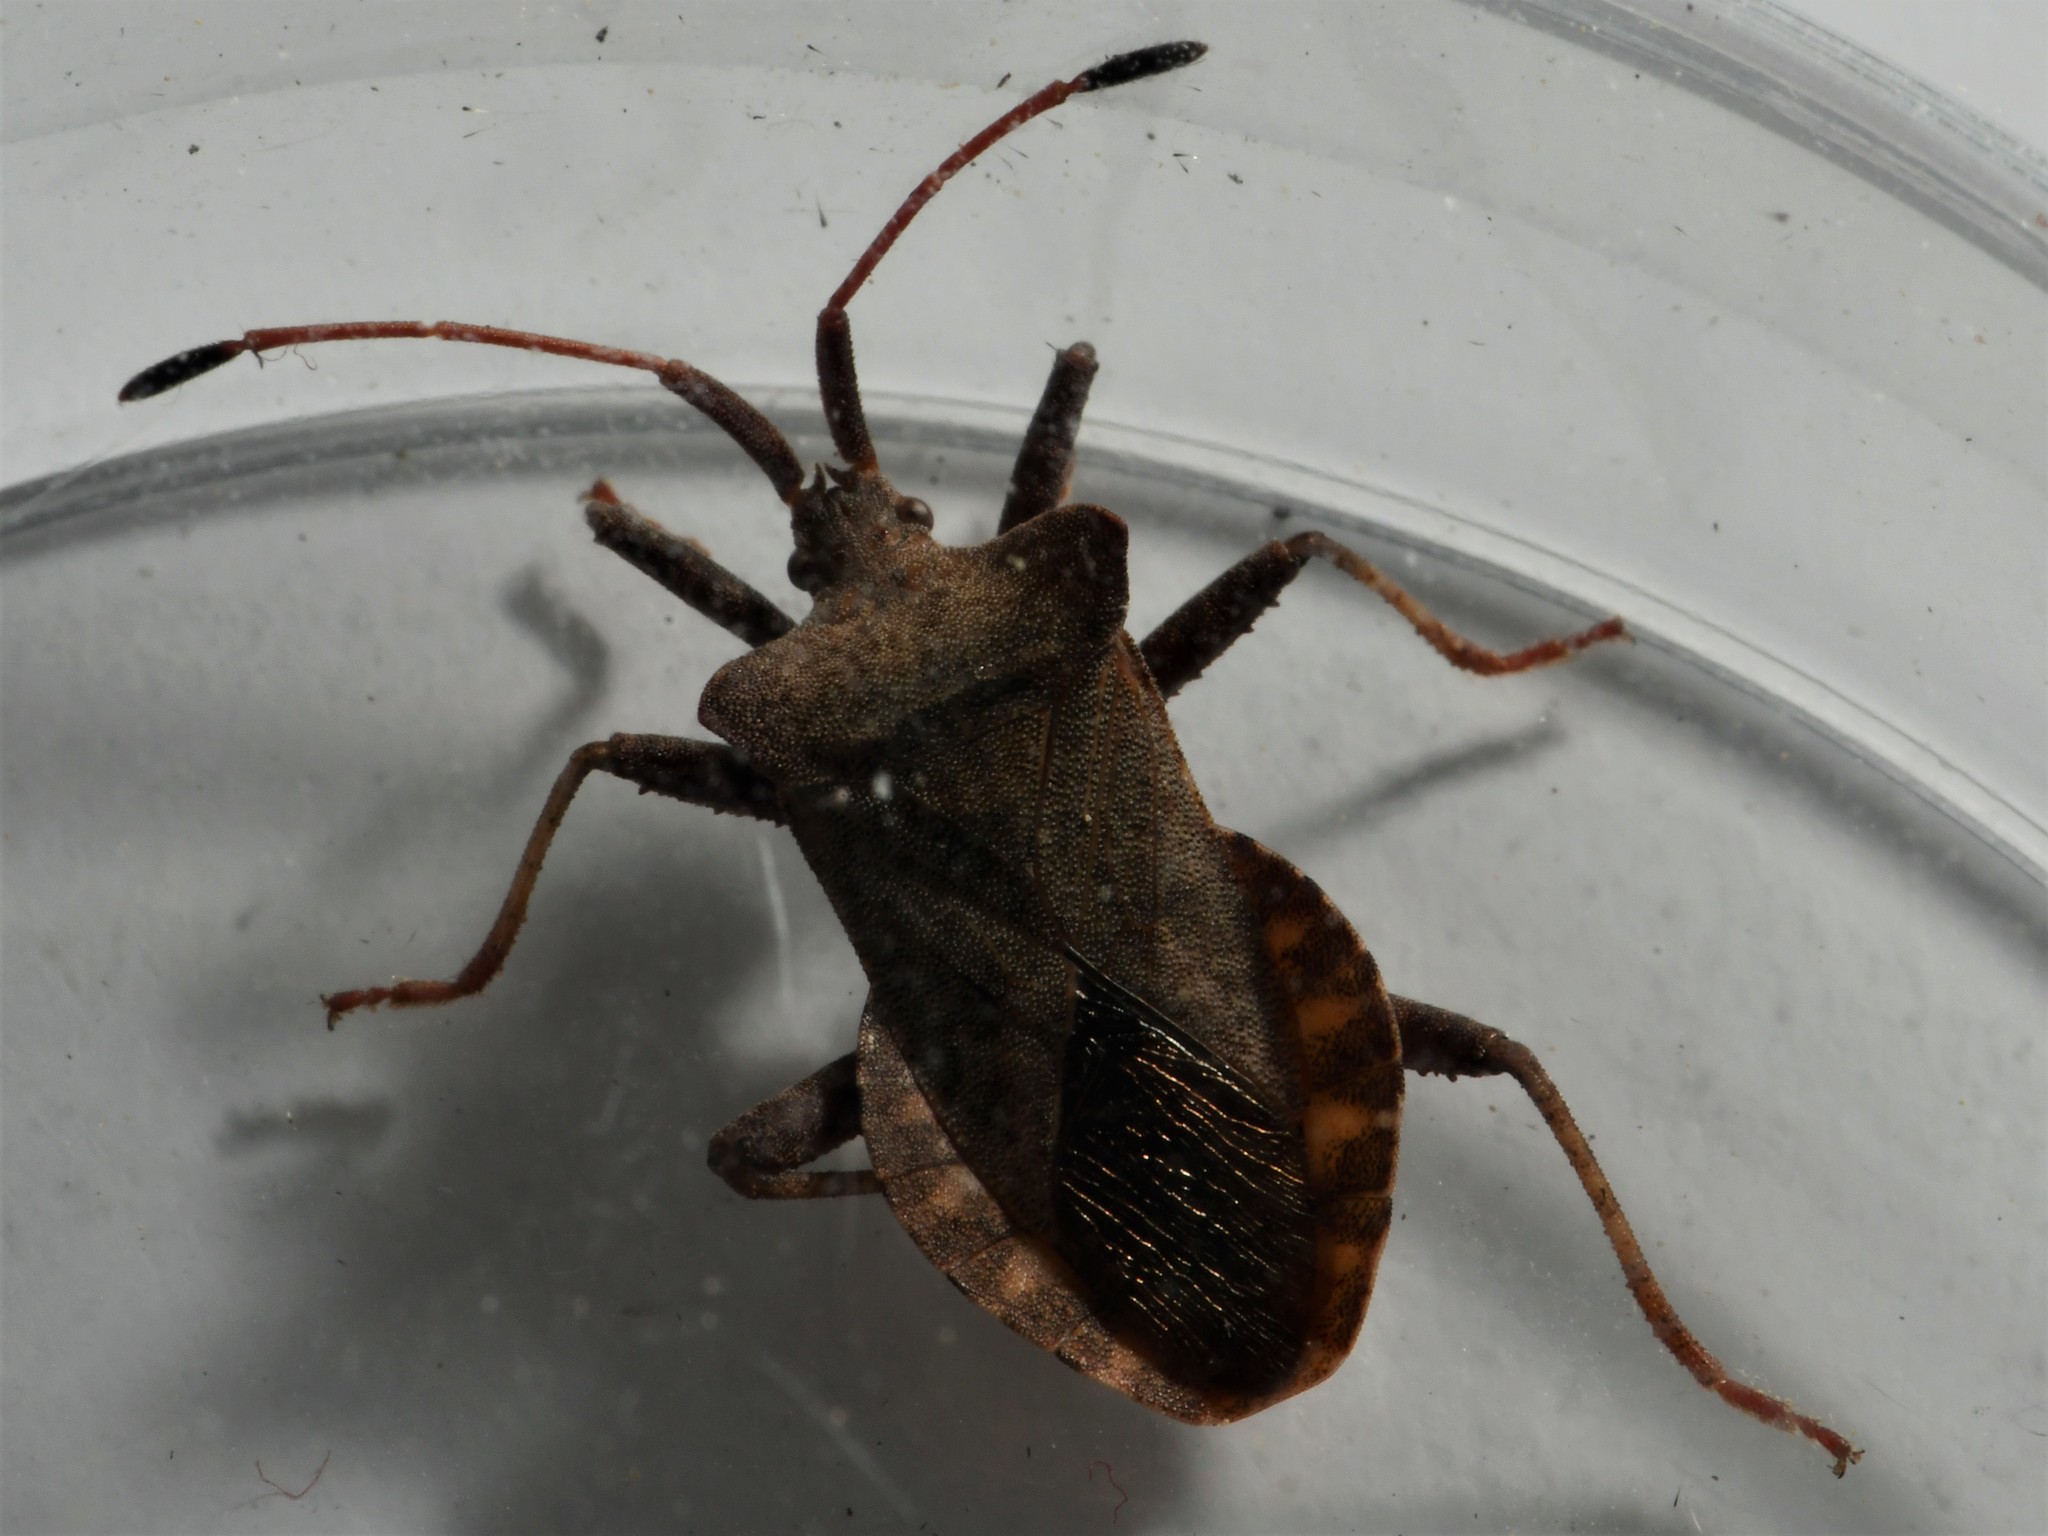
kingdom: Animalia
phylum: Arthropoda
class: Insecta
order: Hemiptera
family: Coreidae
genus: Coreus
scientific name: Coreus marginatus
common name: Dock bug
